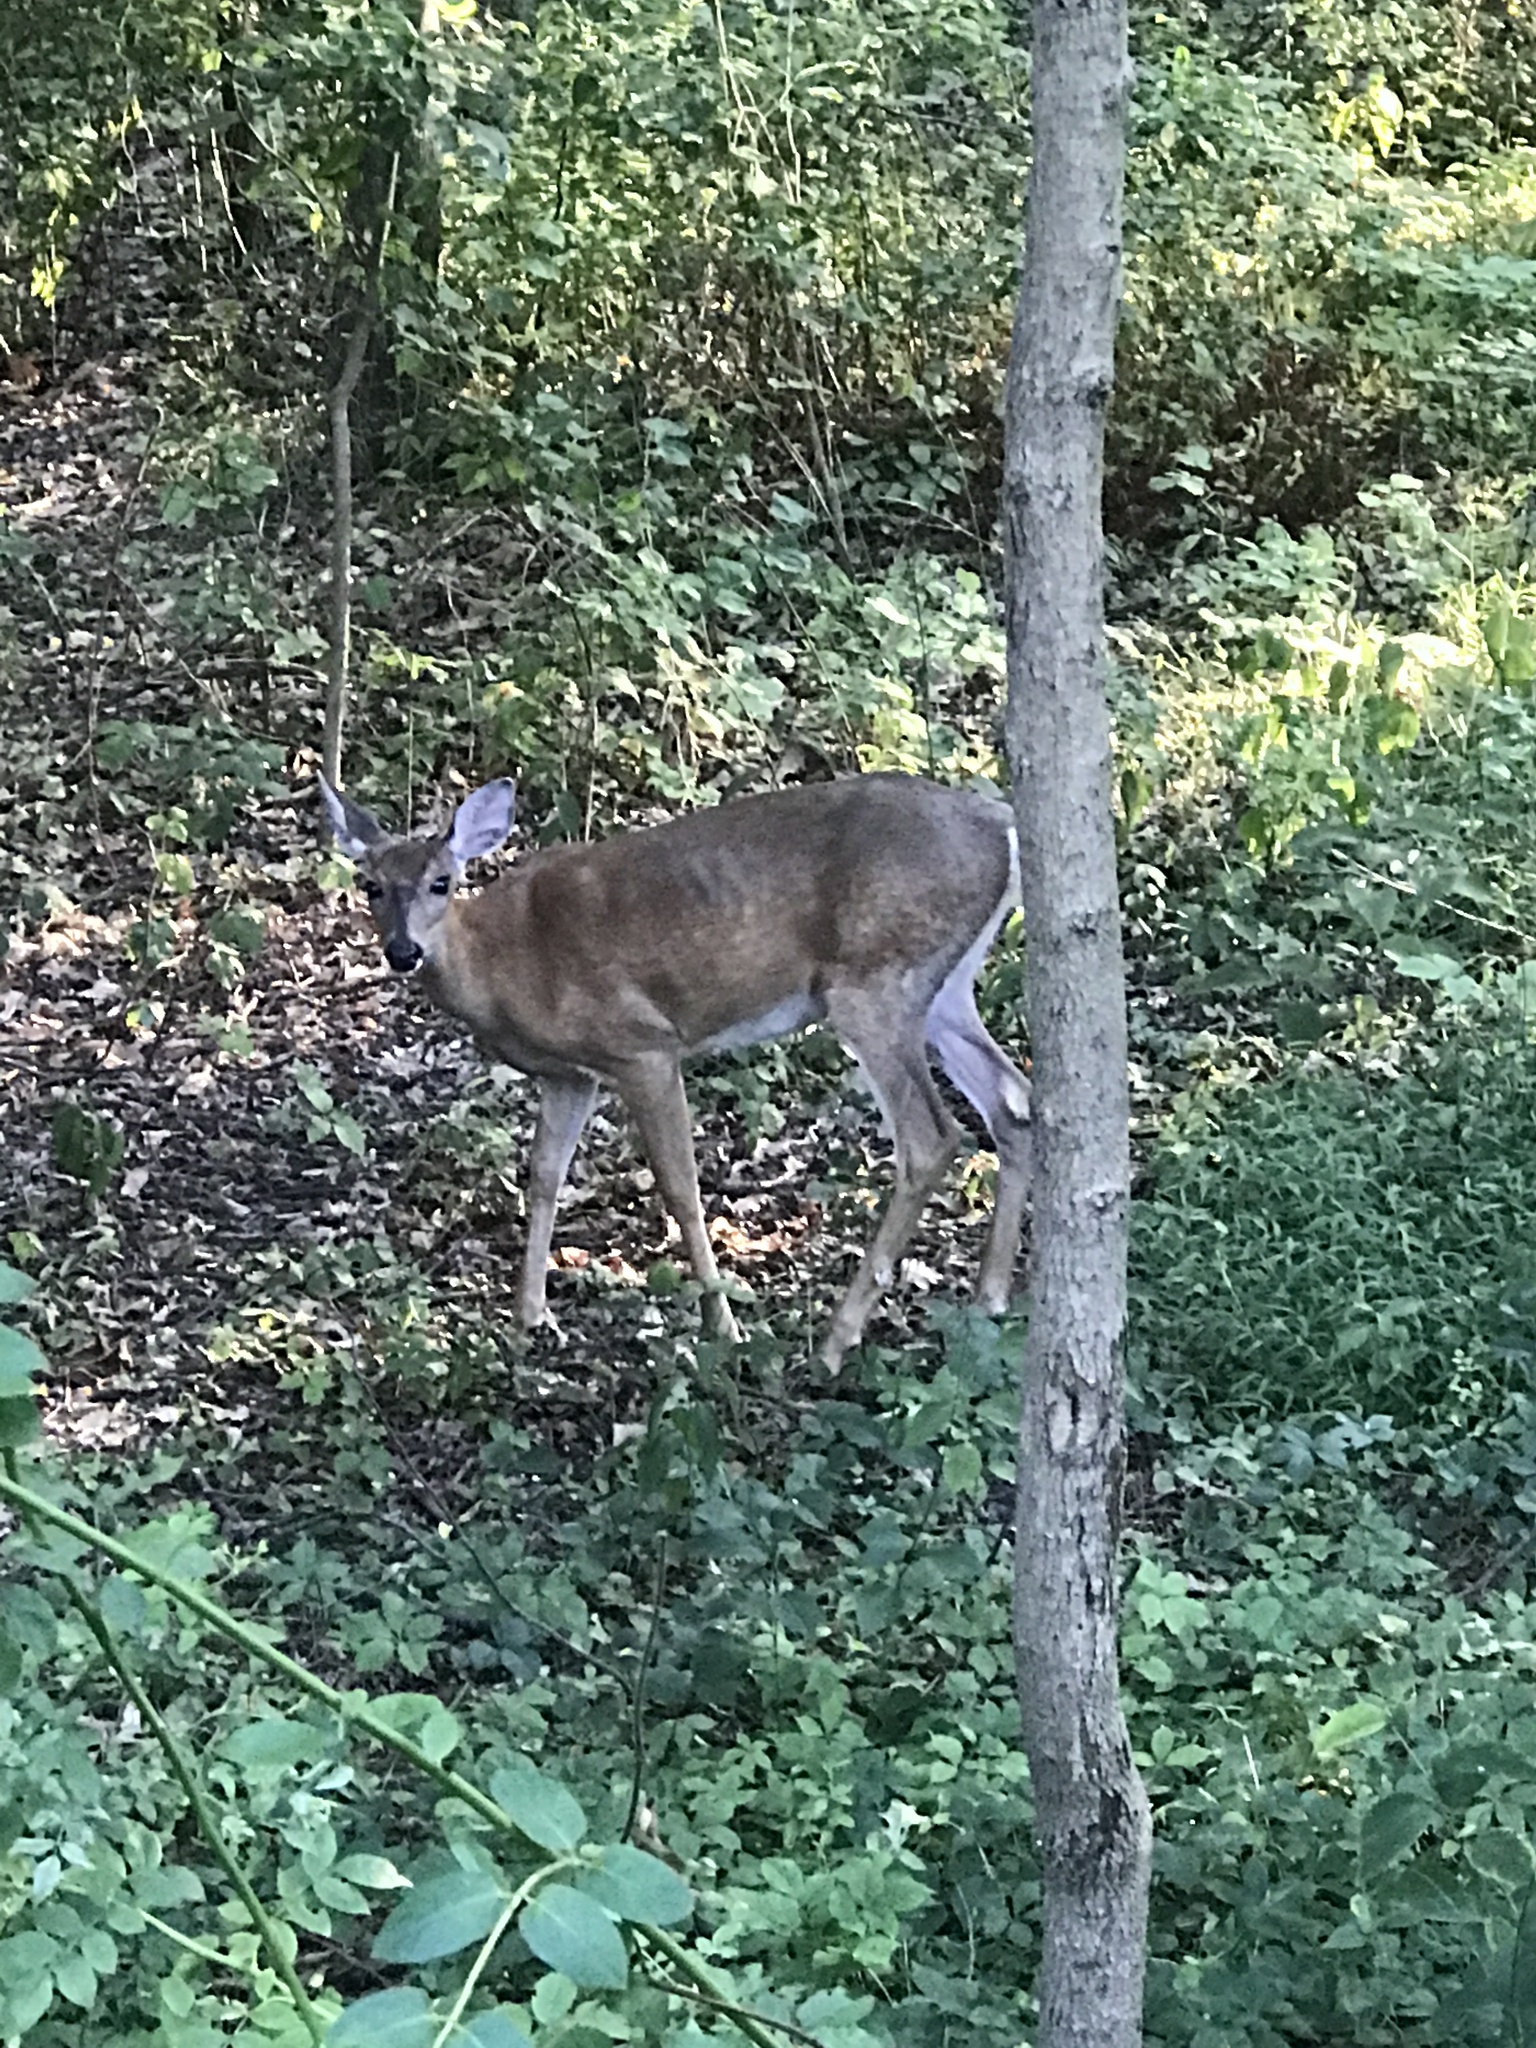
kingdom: Animalia
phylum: Chordata
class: Mammalia
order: Artiodactyla
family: Cervidae
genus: Odocoileus
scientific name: Odocoileus virginianus
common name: White-tailed deer
